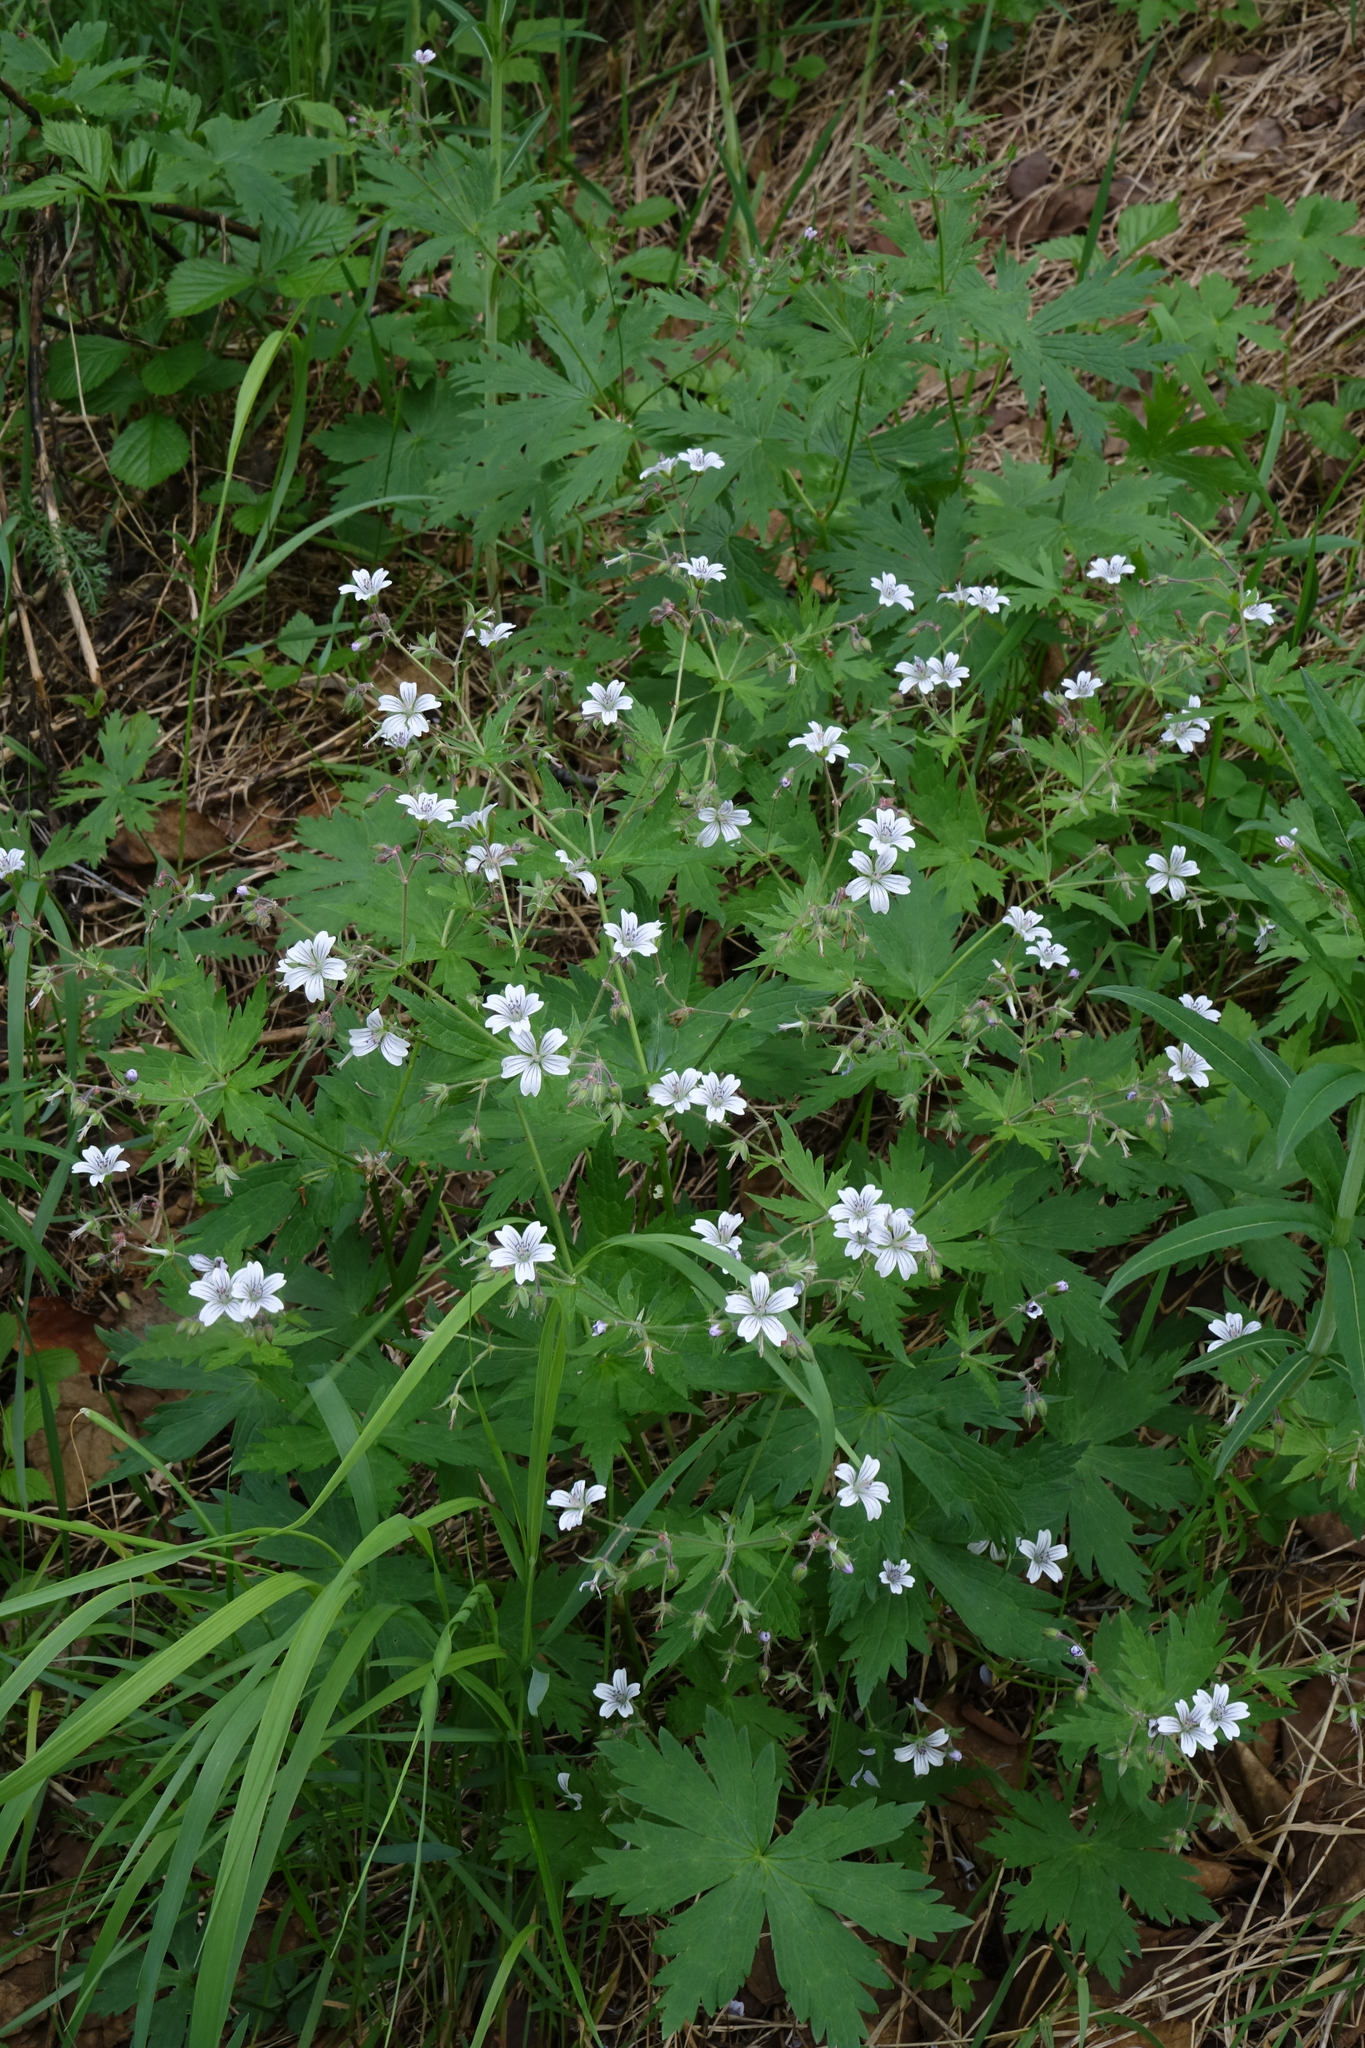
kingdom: Plantae
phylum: Tracheophyta
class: Magnoliopsida
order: Geraniales
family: Geraniaceae
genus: Geranium
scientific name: Geranium sylvaticum
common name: Wood crane's-bill
